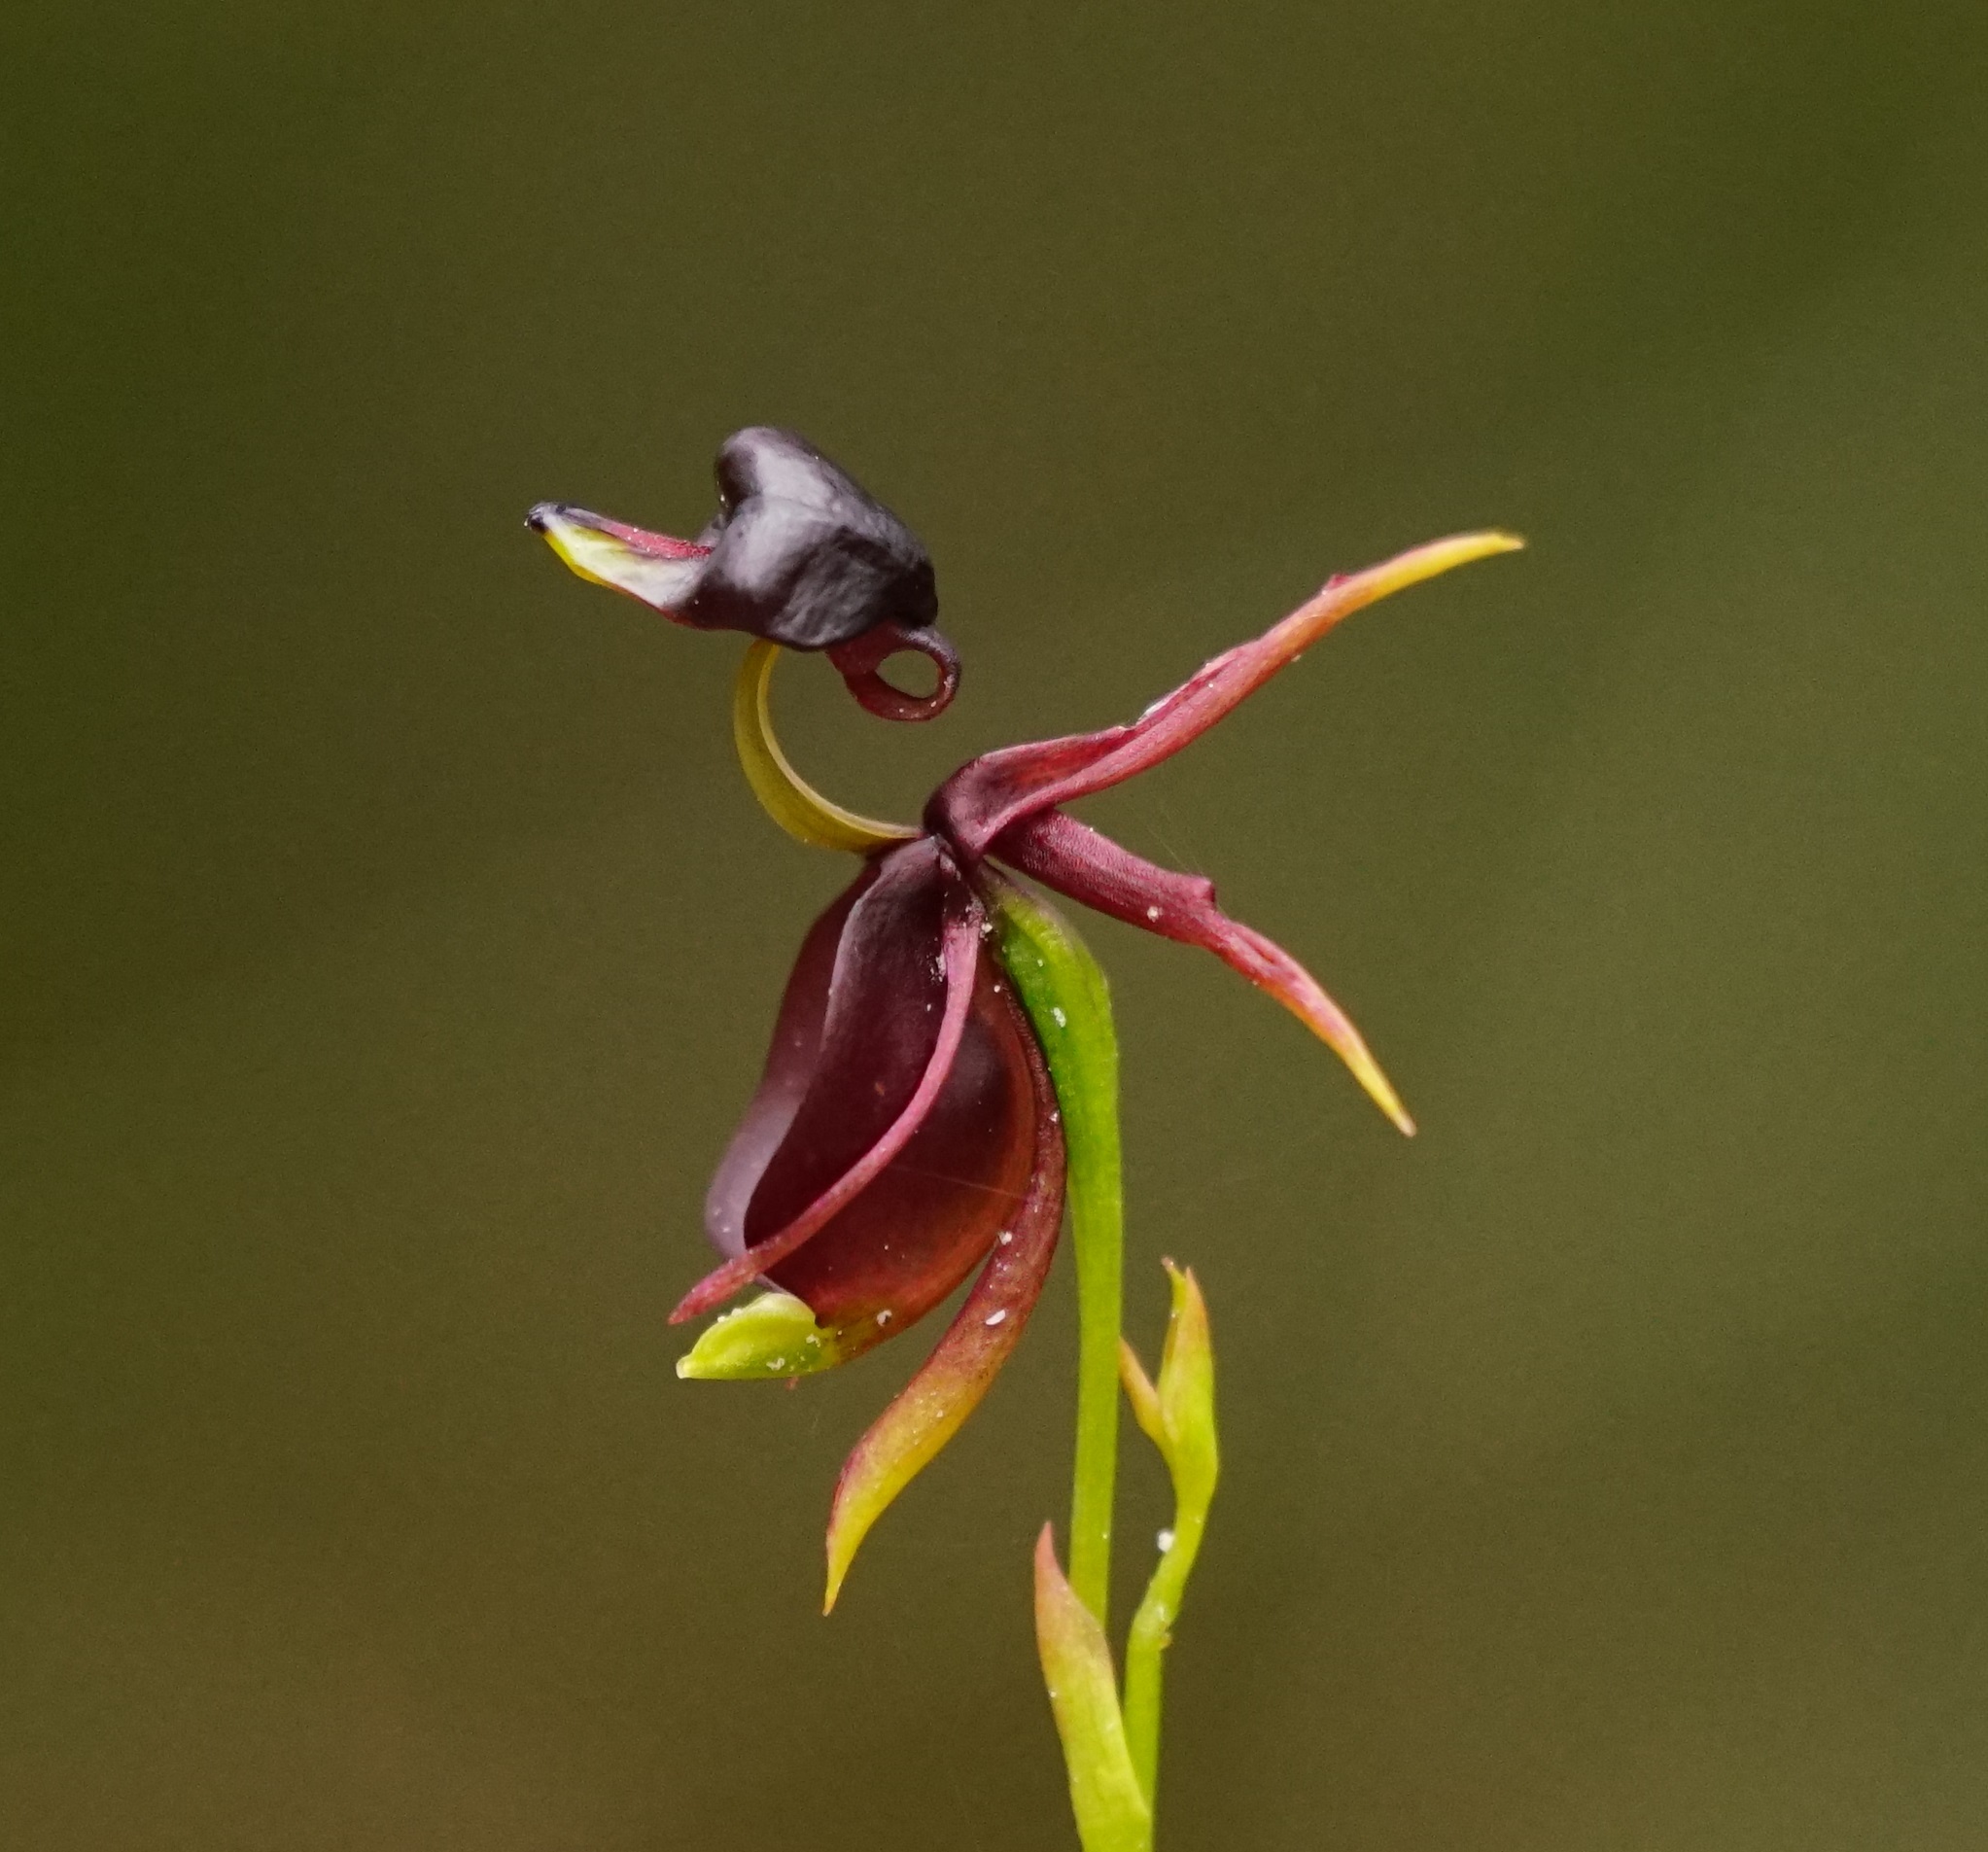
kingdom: Plantae
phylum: Tracheophyta
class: Liliopsida
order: Asparagales
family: Orchidaceae
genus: Caleana
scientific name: Caleana major
